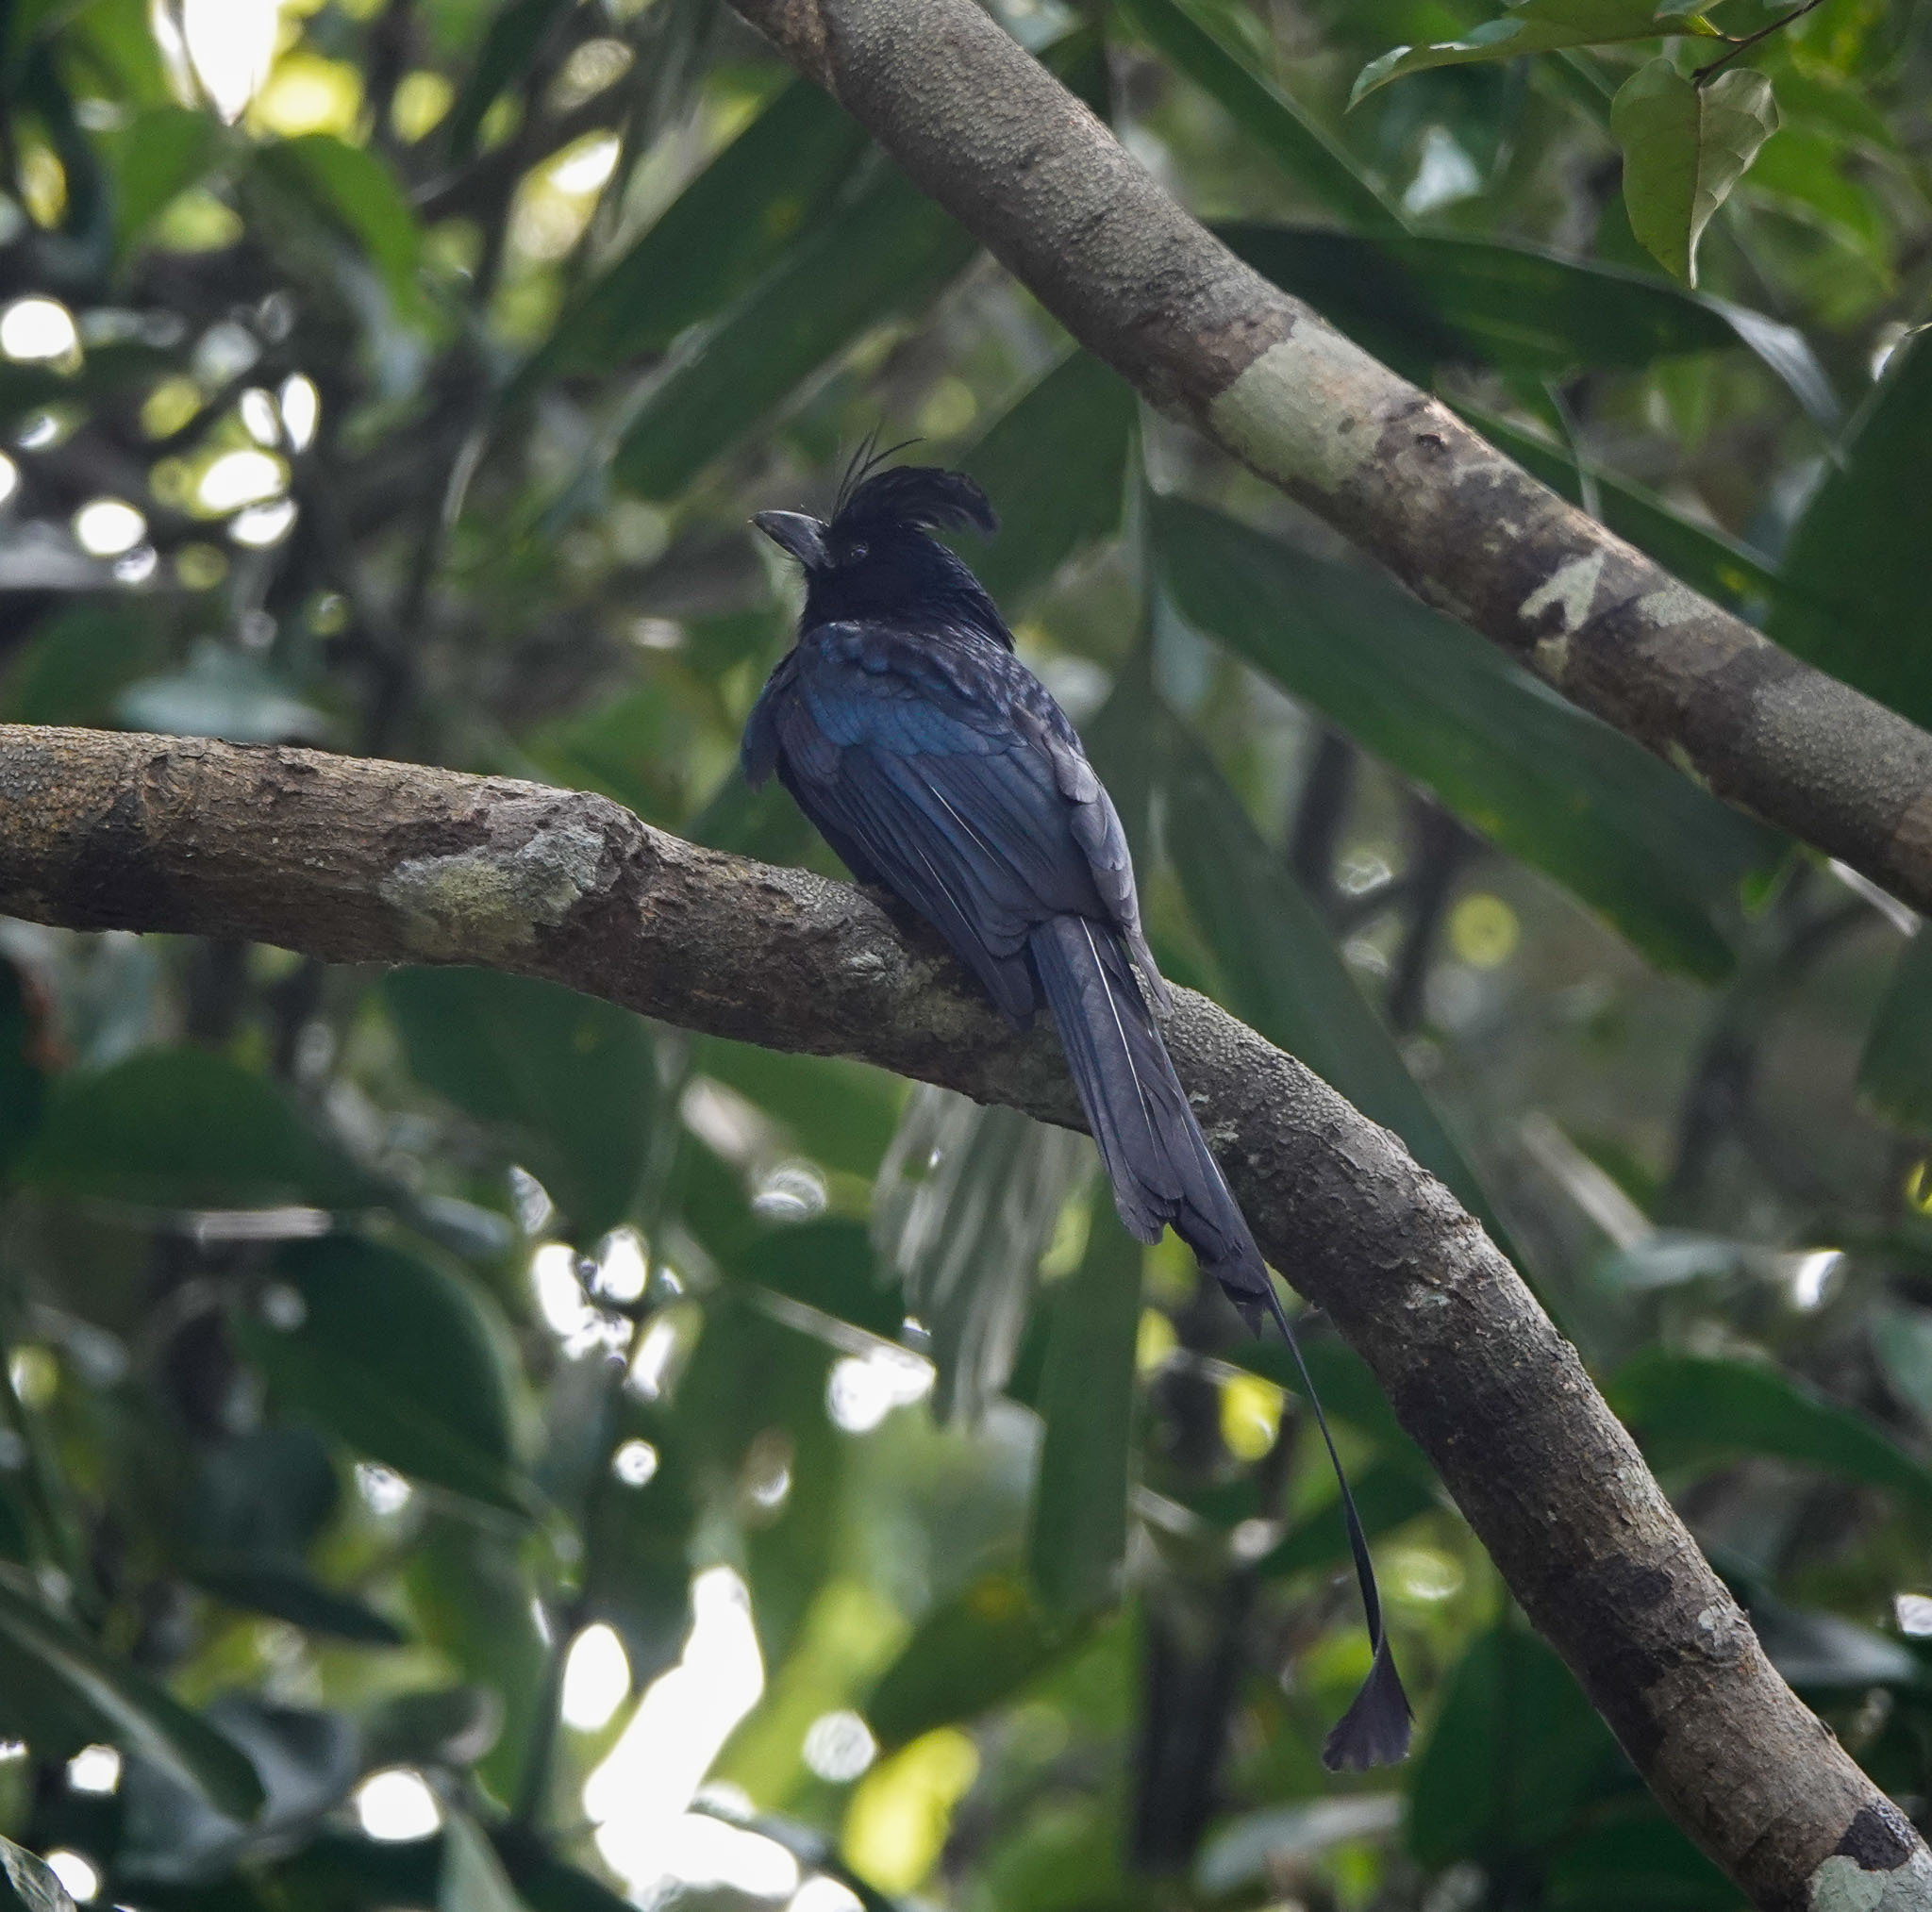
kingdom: Animalia
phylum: Chordata
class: Aves
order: Passeriformes
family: Dicruridae
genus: Dicrurus
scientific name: Dicrurus paradiseus
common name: Greater racket-tailed drongo
